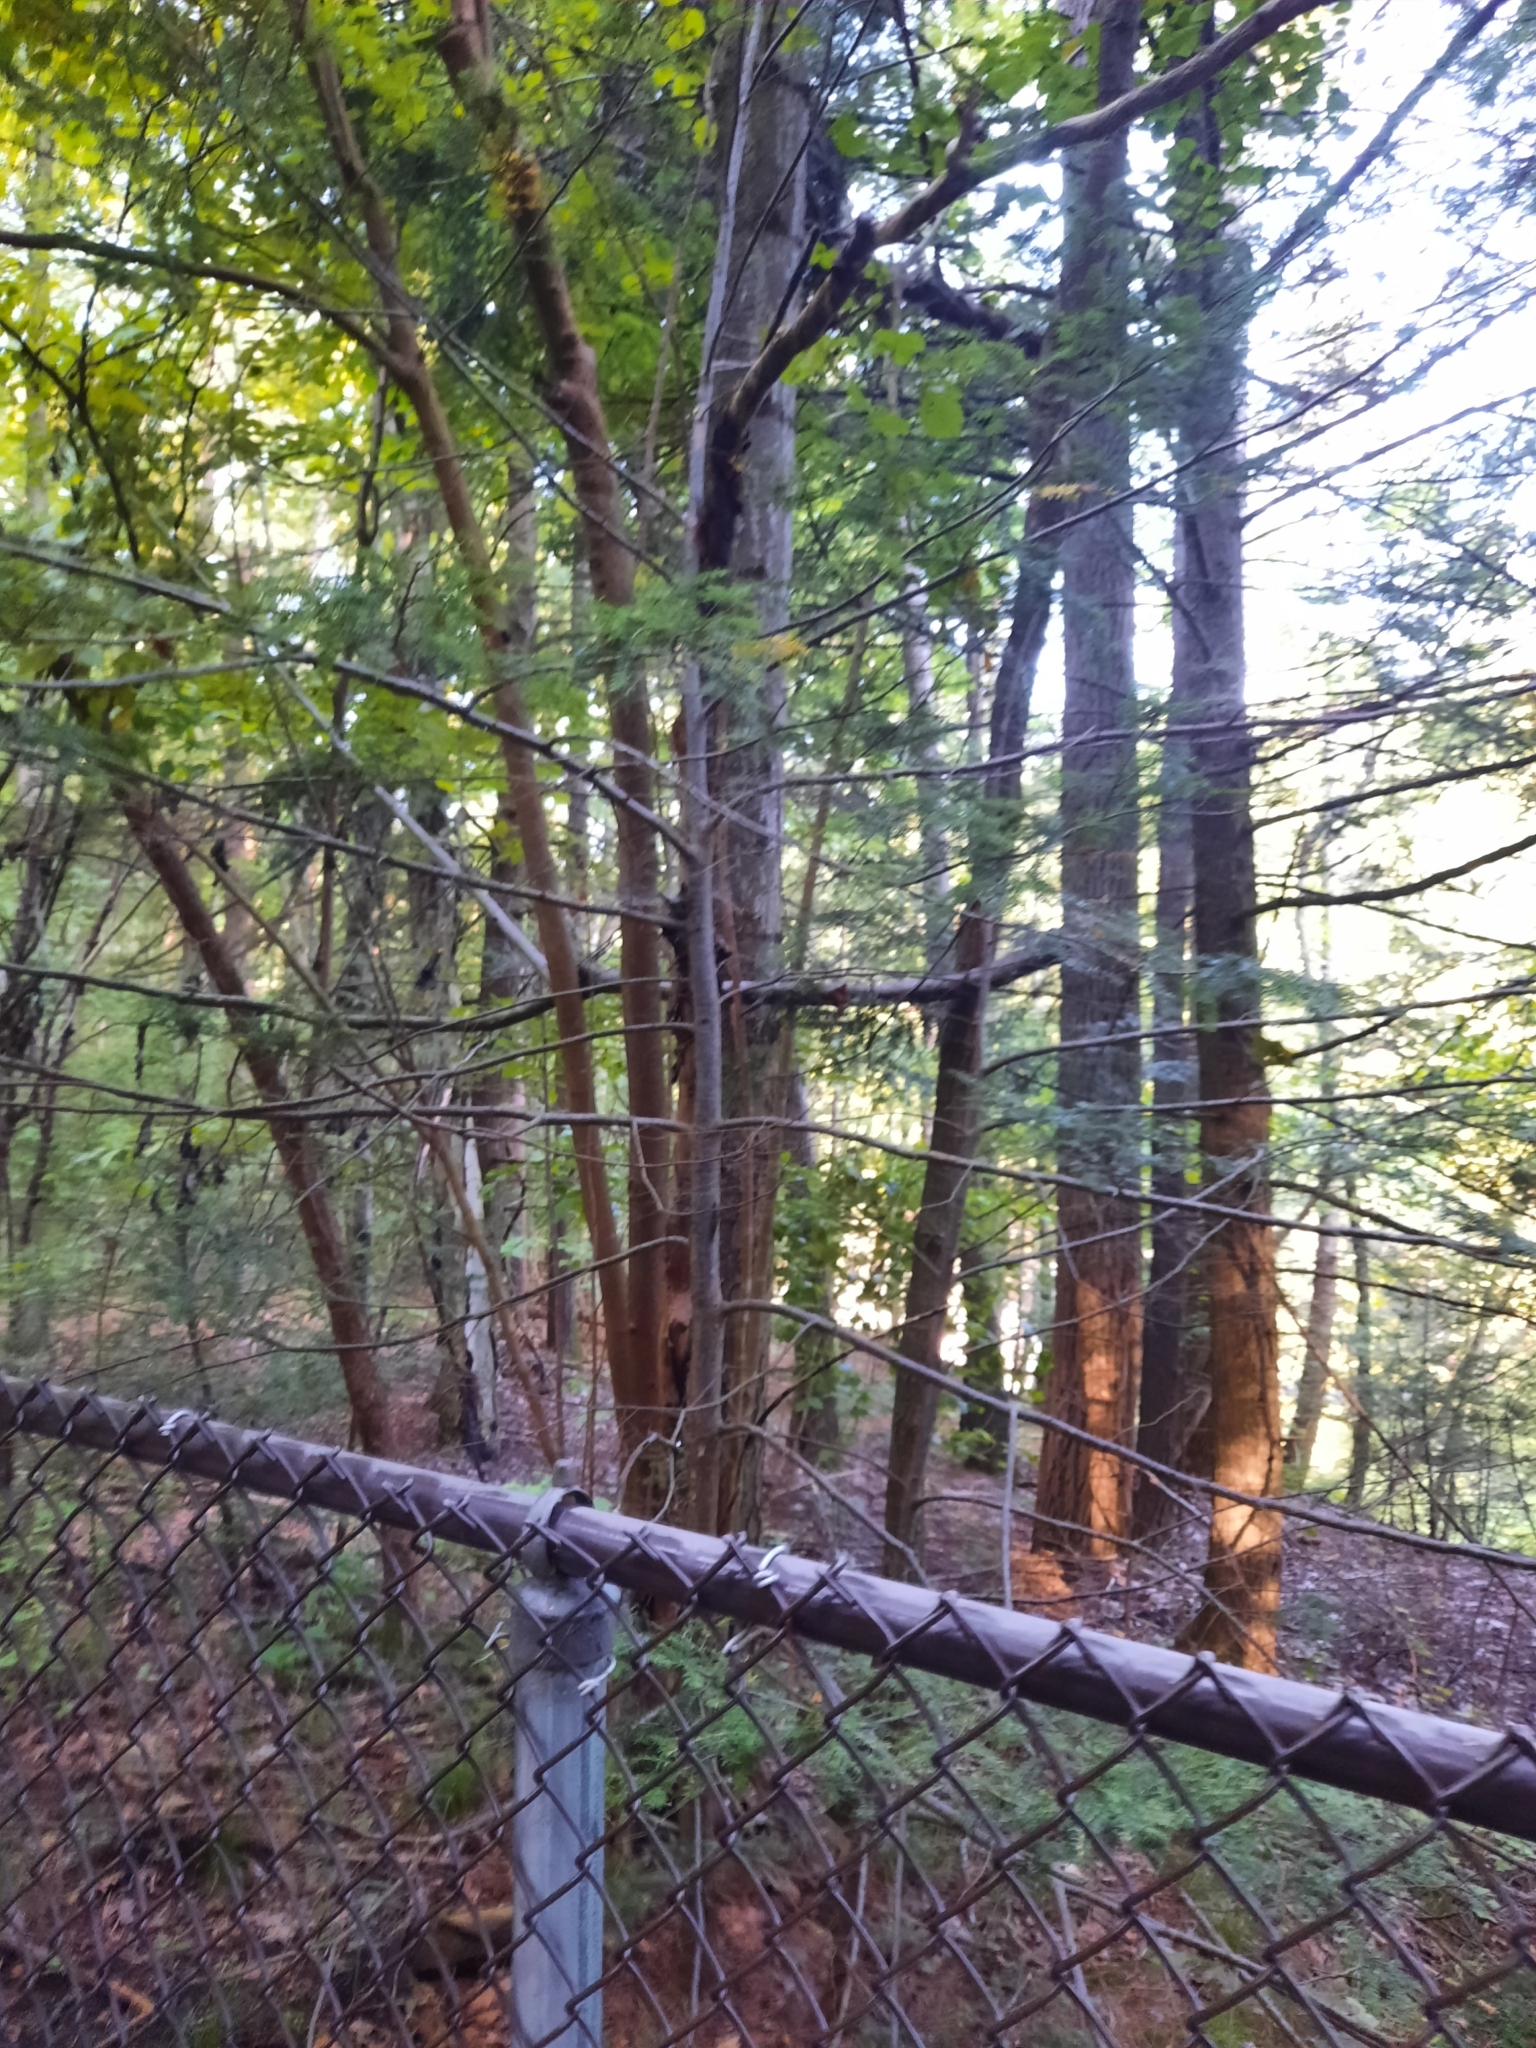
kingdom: Plantae
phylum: Tracheophyta
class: Pinopsida
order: Pinales
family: Pinaceae
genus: Tsuga
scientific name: Tsuga canadensis
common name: Eastern hemlock
